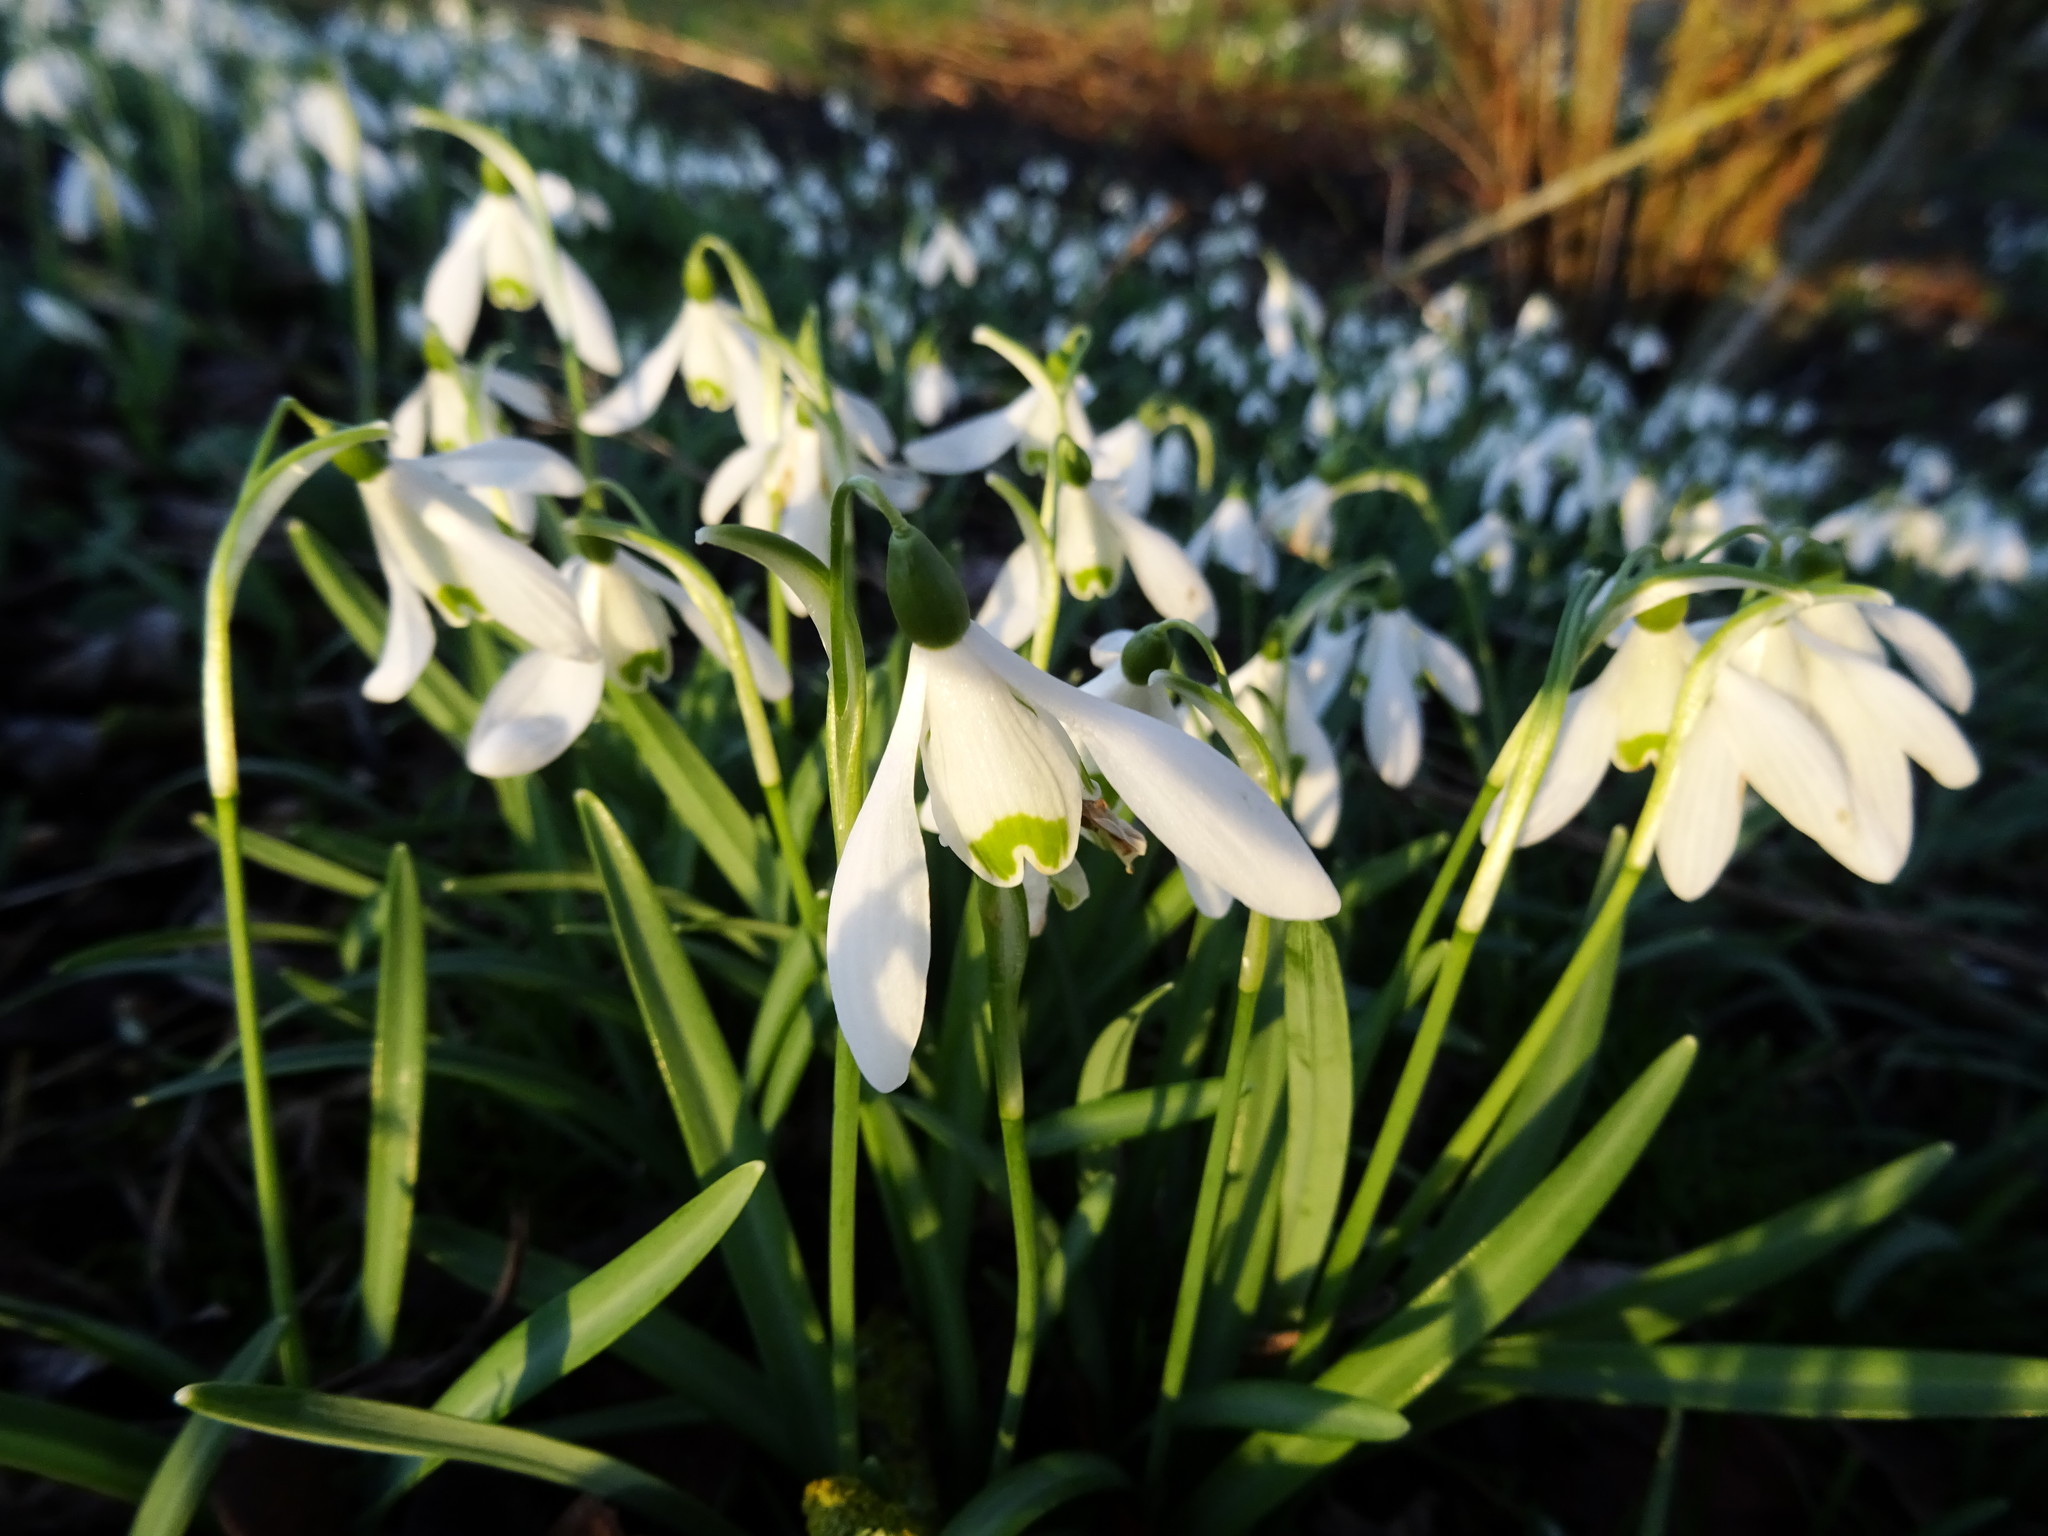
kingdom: Plantae
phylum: Tracheophyta
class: Liliopsida
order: Asparagales
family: Amaryllidaceae
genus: Galanthus
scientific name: Galanthus nivalis
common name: Snowdrop
